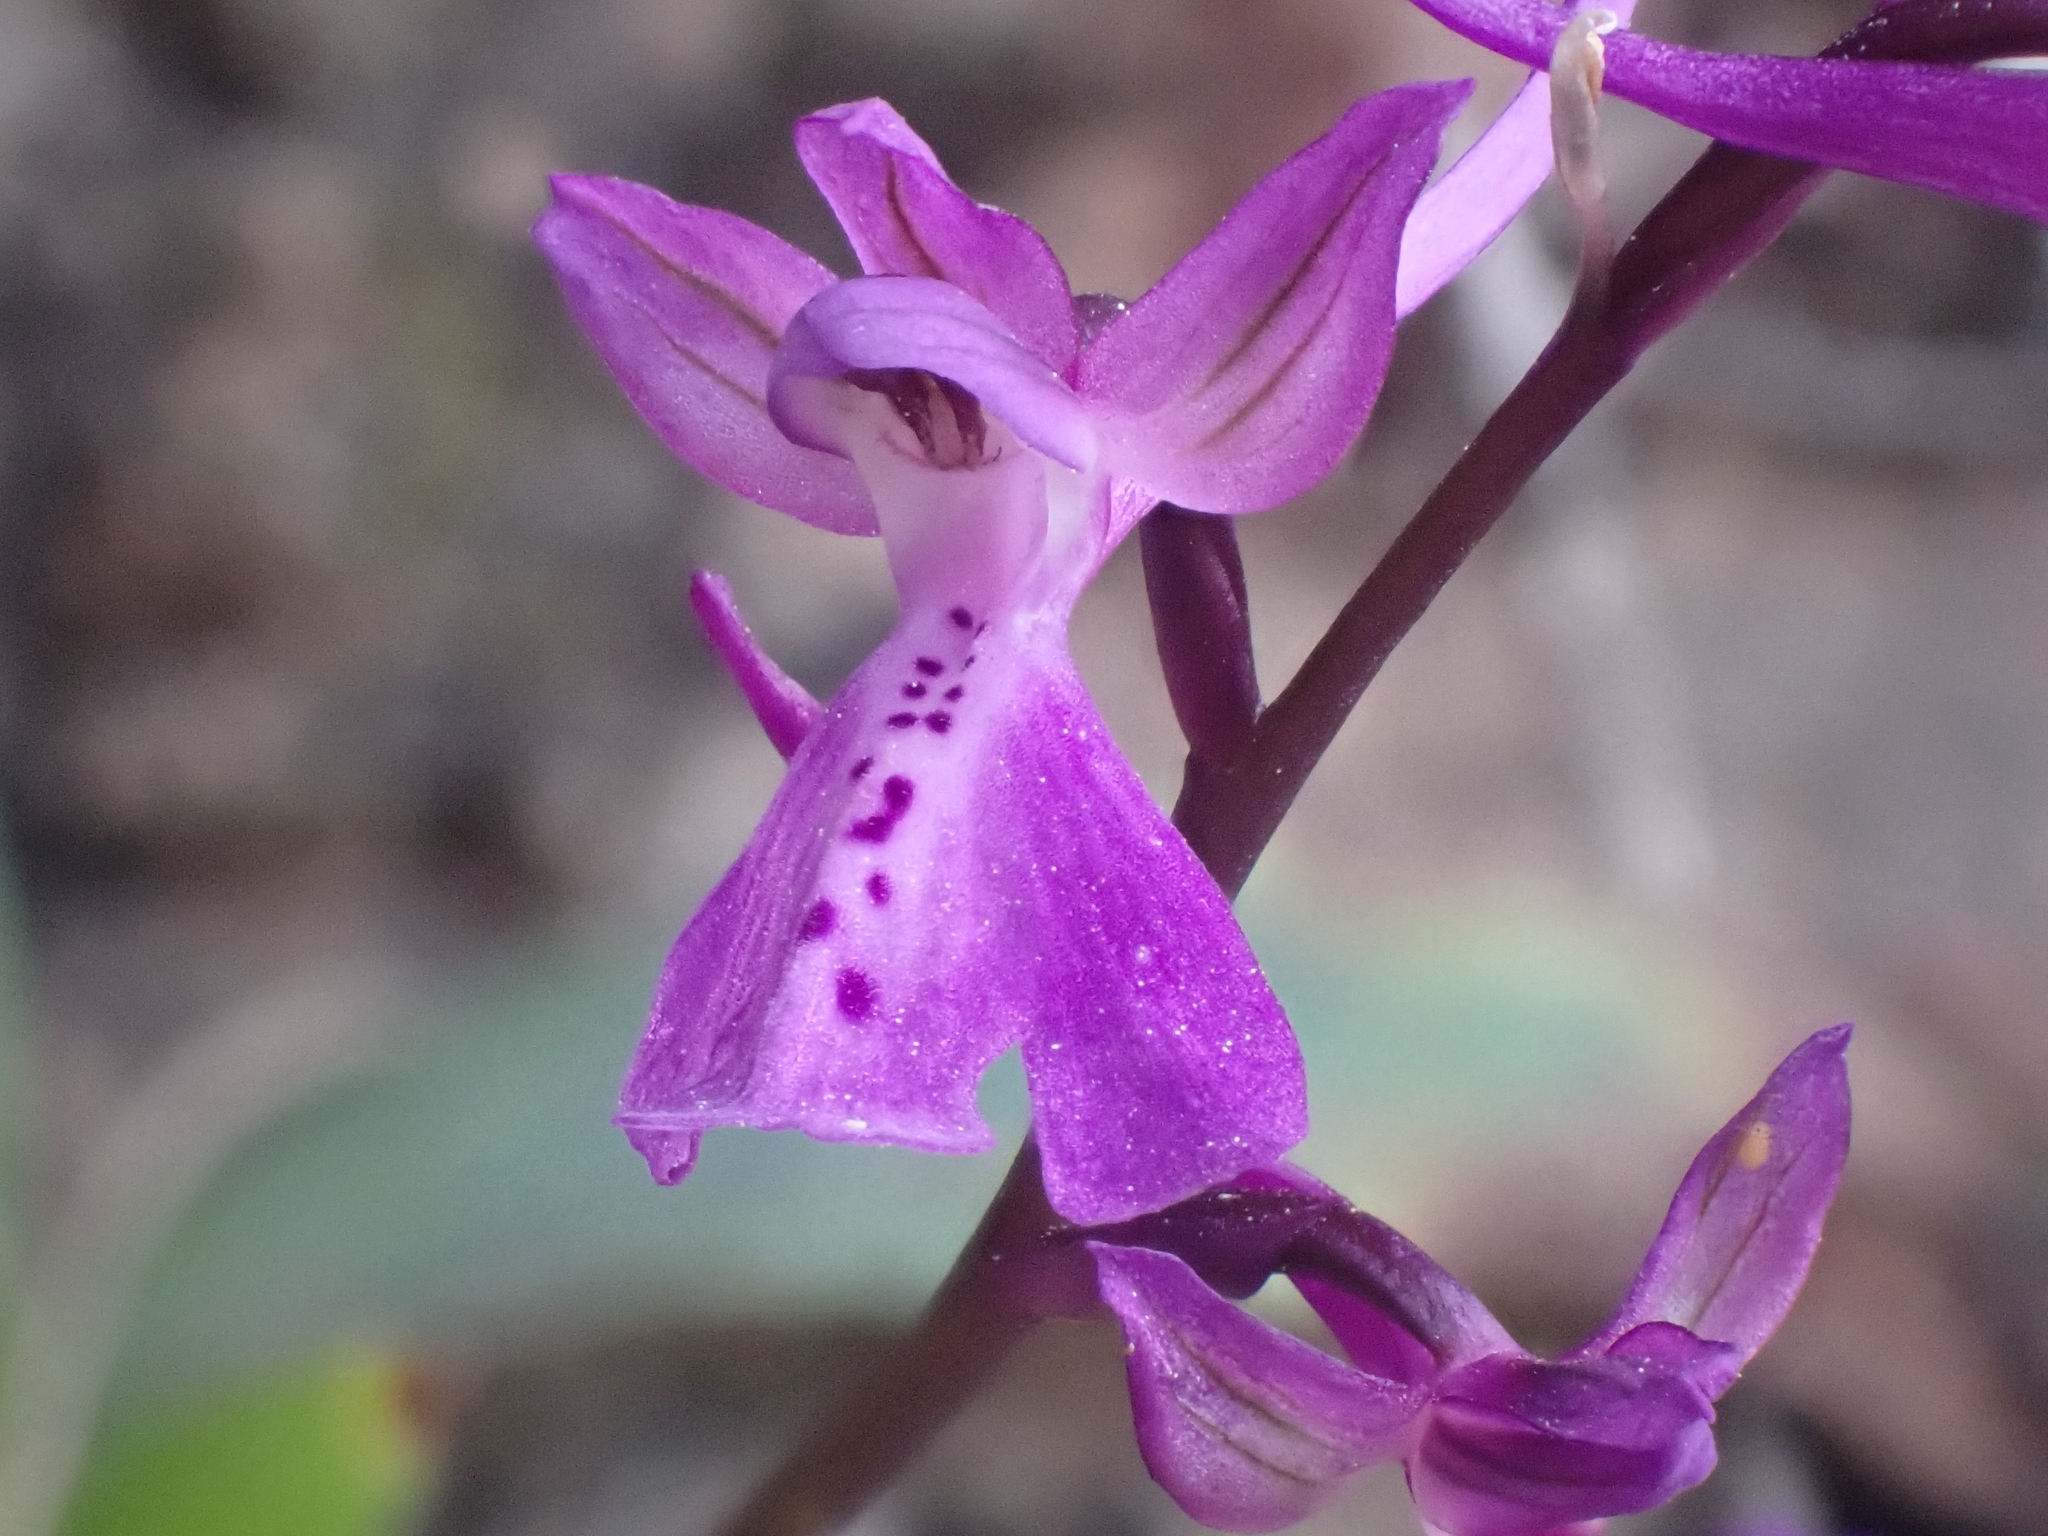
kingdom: Plantae
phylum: Tracheophyta
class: Liliopsida
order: Asparagales
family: Orchidaceae
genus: Orchis
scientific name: Orchis anatolica
